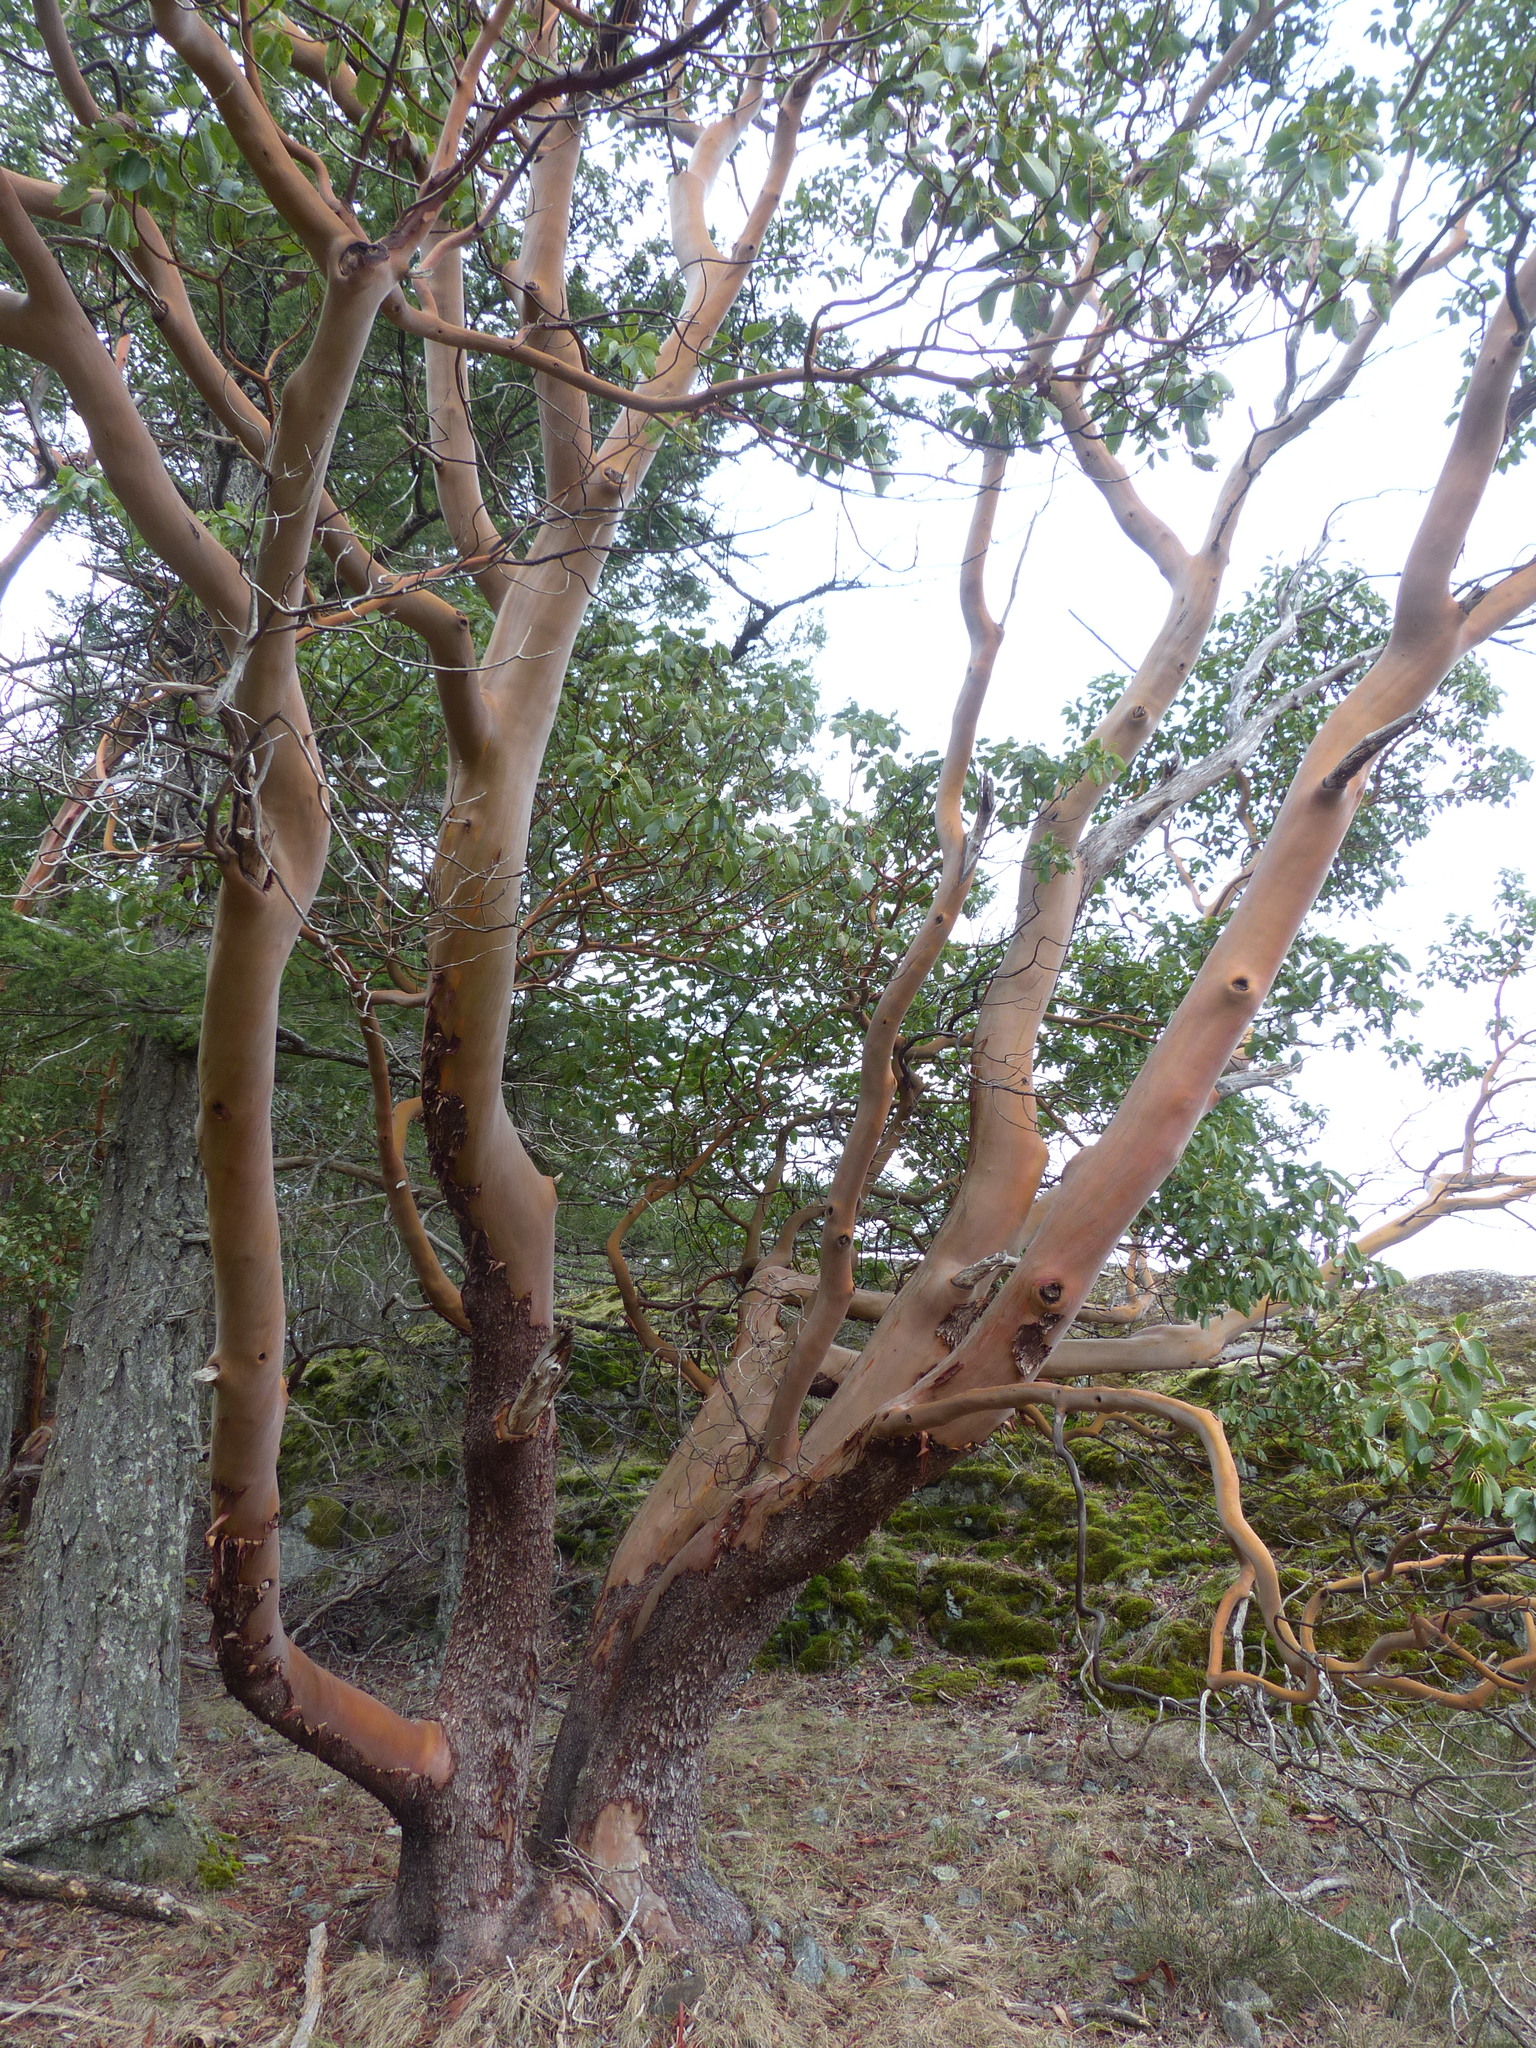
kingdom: Plantae
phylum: Tracheophyta
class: Magnoliopsida
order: Ericales
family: Ericaceae
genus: Arbutus
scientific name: Arbutus menziesii
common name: Pacific madrone
